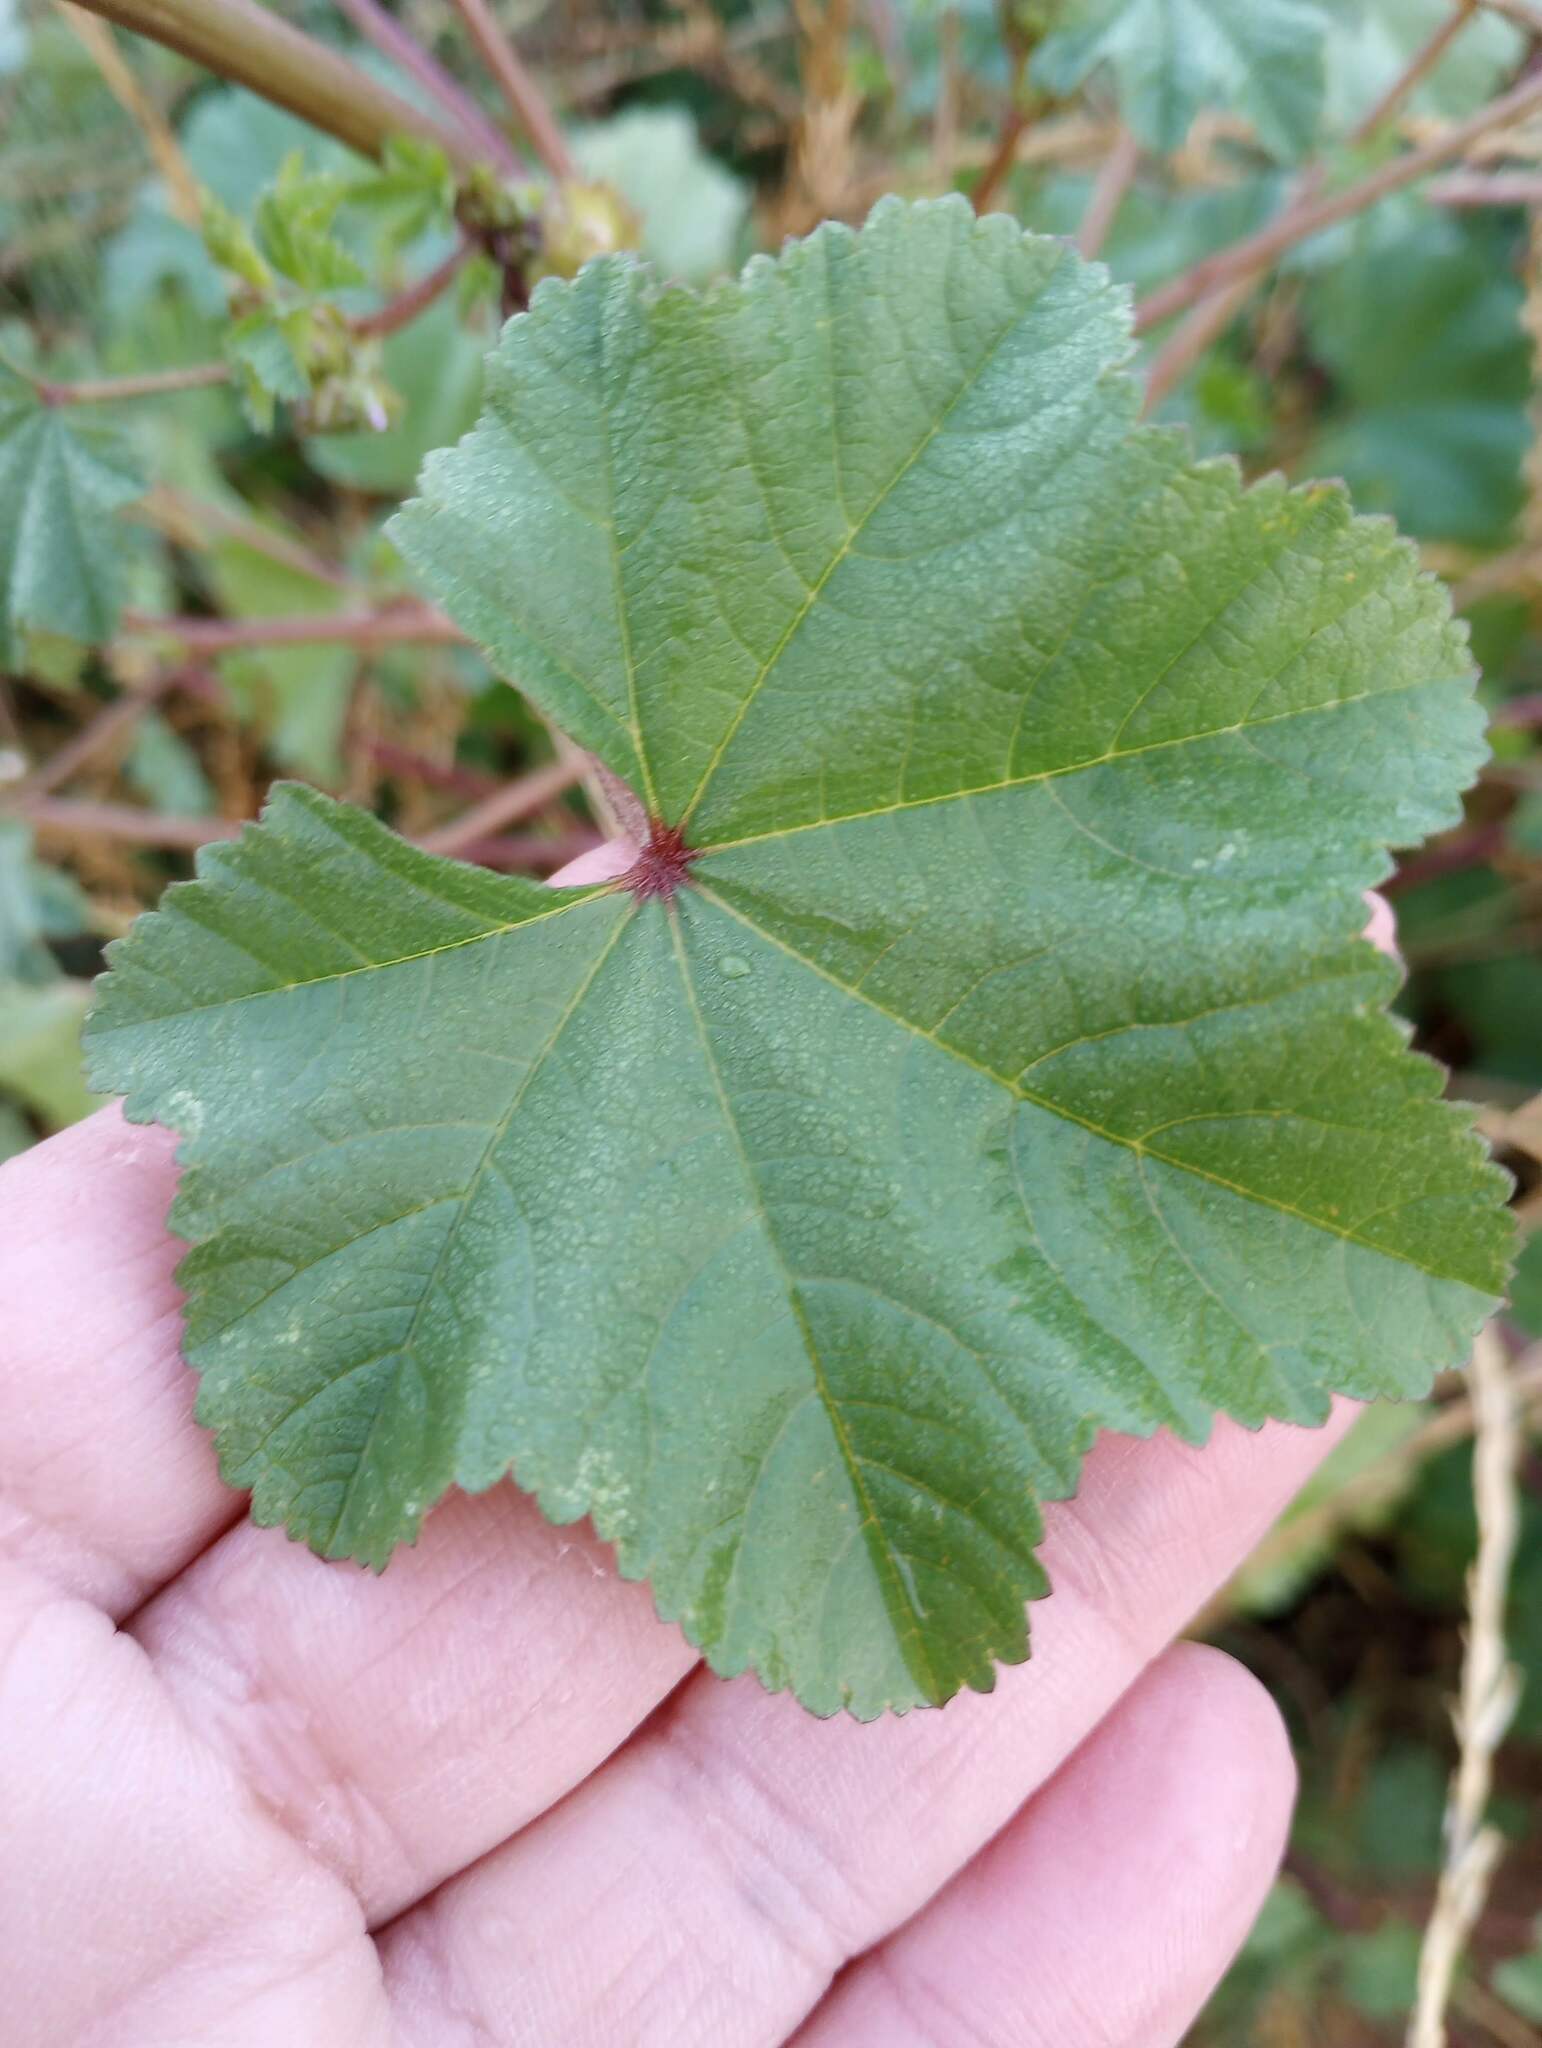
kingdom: Plantae
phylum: Tracheophyta
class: Magnoliopsida
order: Malvales
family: Malvaceae
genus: Malva
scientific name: Malva parviflora
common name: Least mallow
